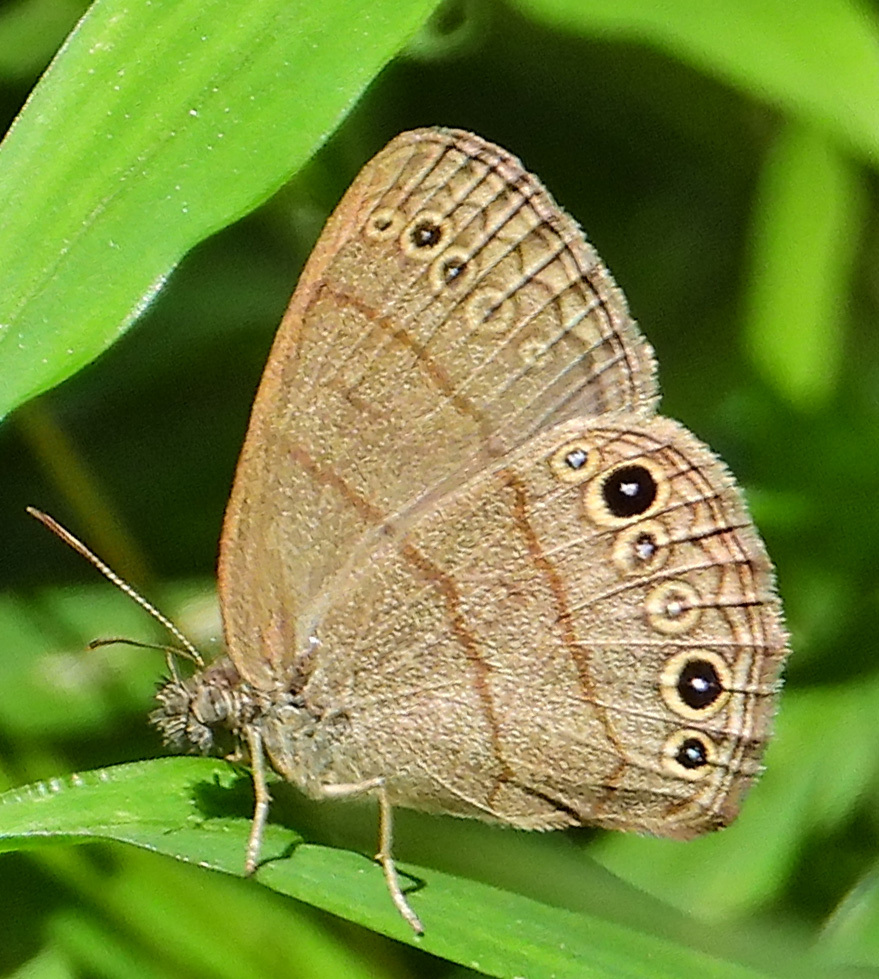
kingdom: Animalia
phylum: Arthropoda
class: Insecta
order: Lepidoptera
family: Nymphalidae
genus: Hermeuptychia
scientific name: Hermeuptychia hermes
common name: Hermes satyr
